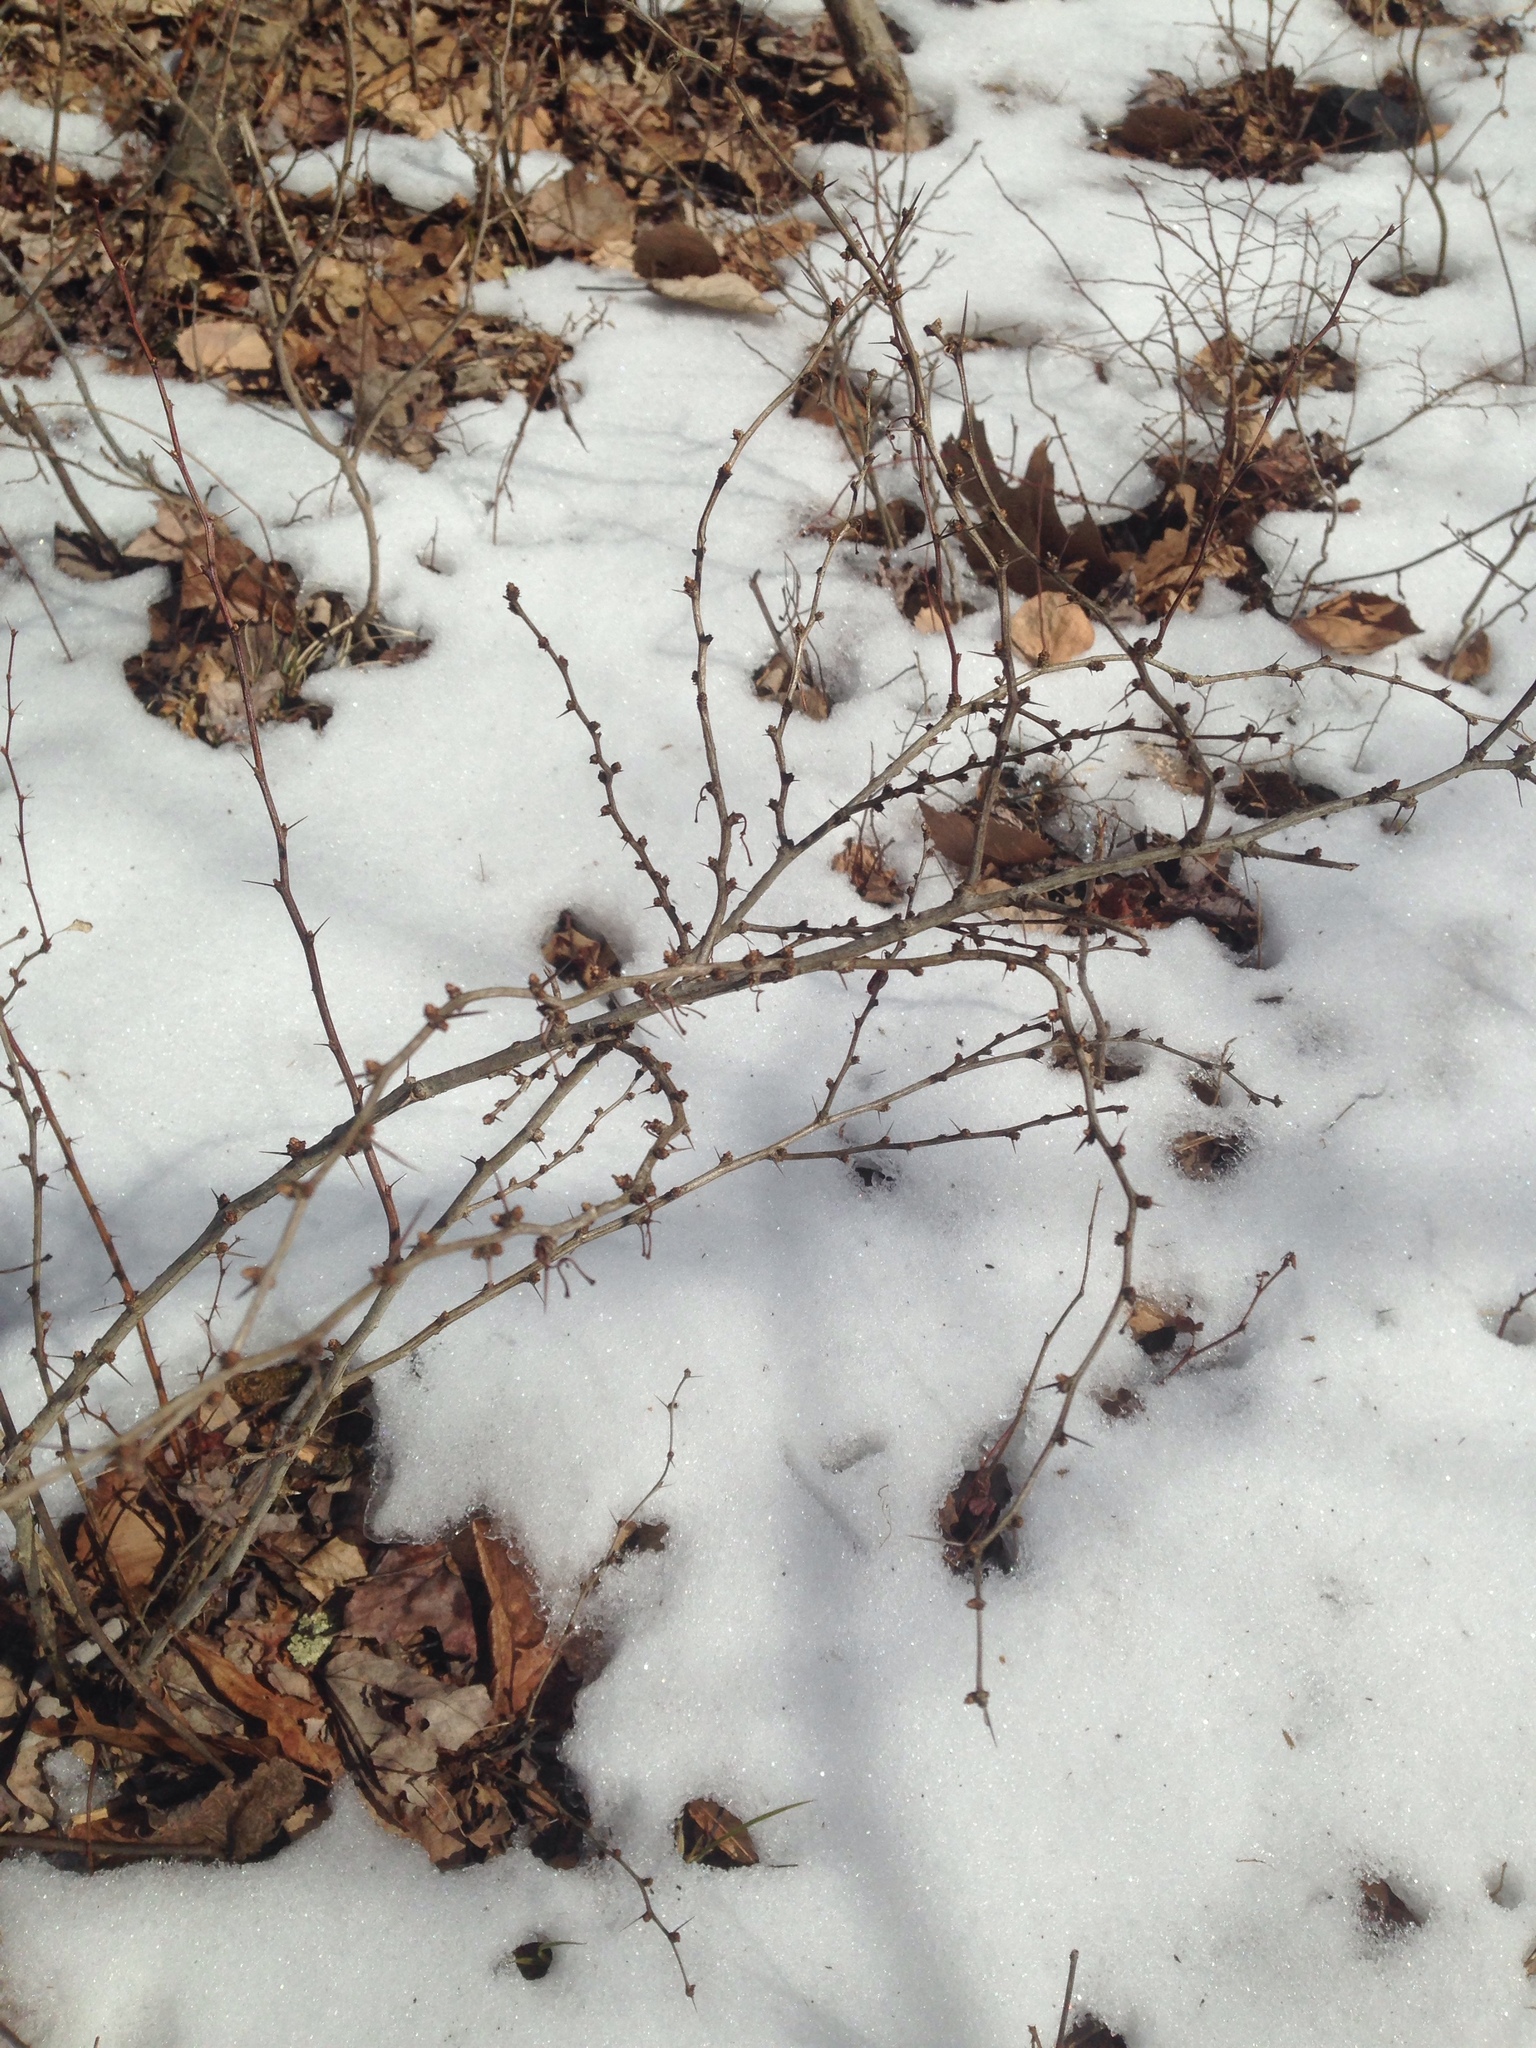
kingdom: Plantae
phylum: Tracheophyta
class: Magnoliopsida
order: Ranunculales
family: Berberidaceae
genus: Berberis
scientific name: Berberis thunbergii
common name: Japanese barberry
